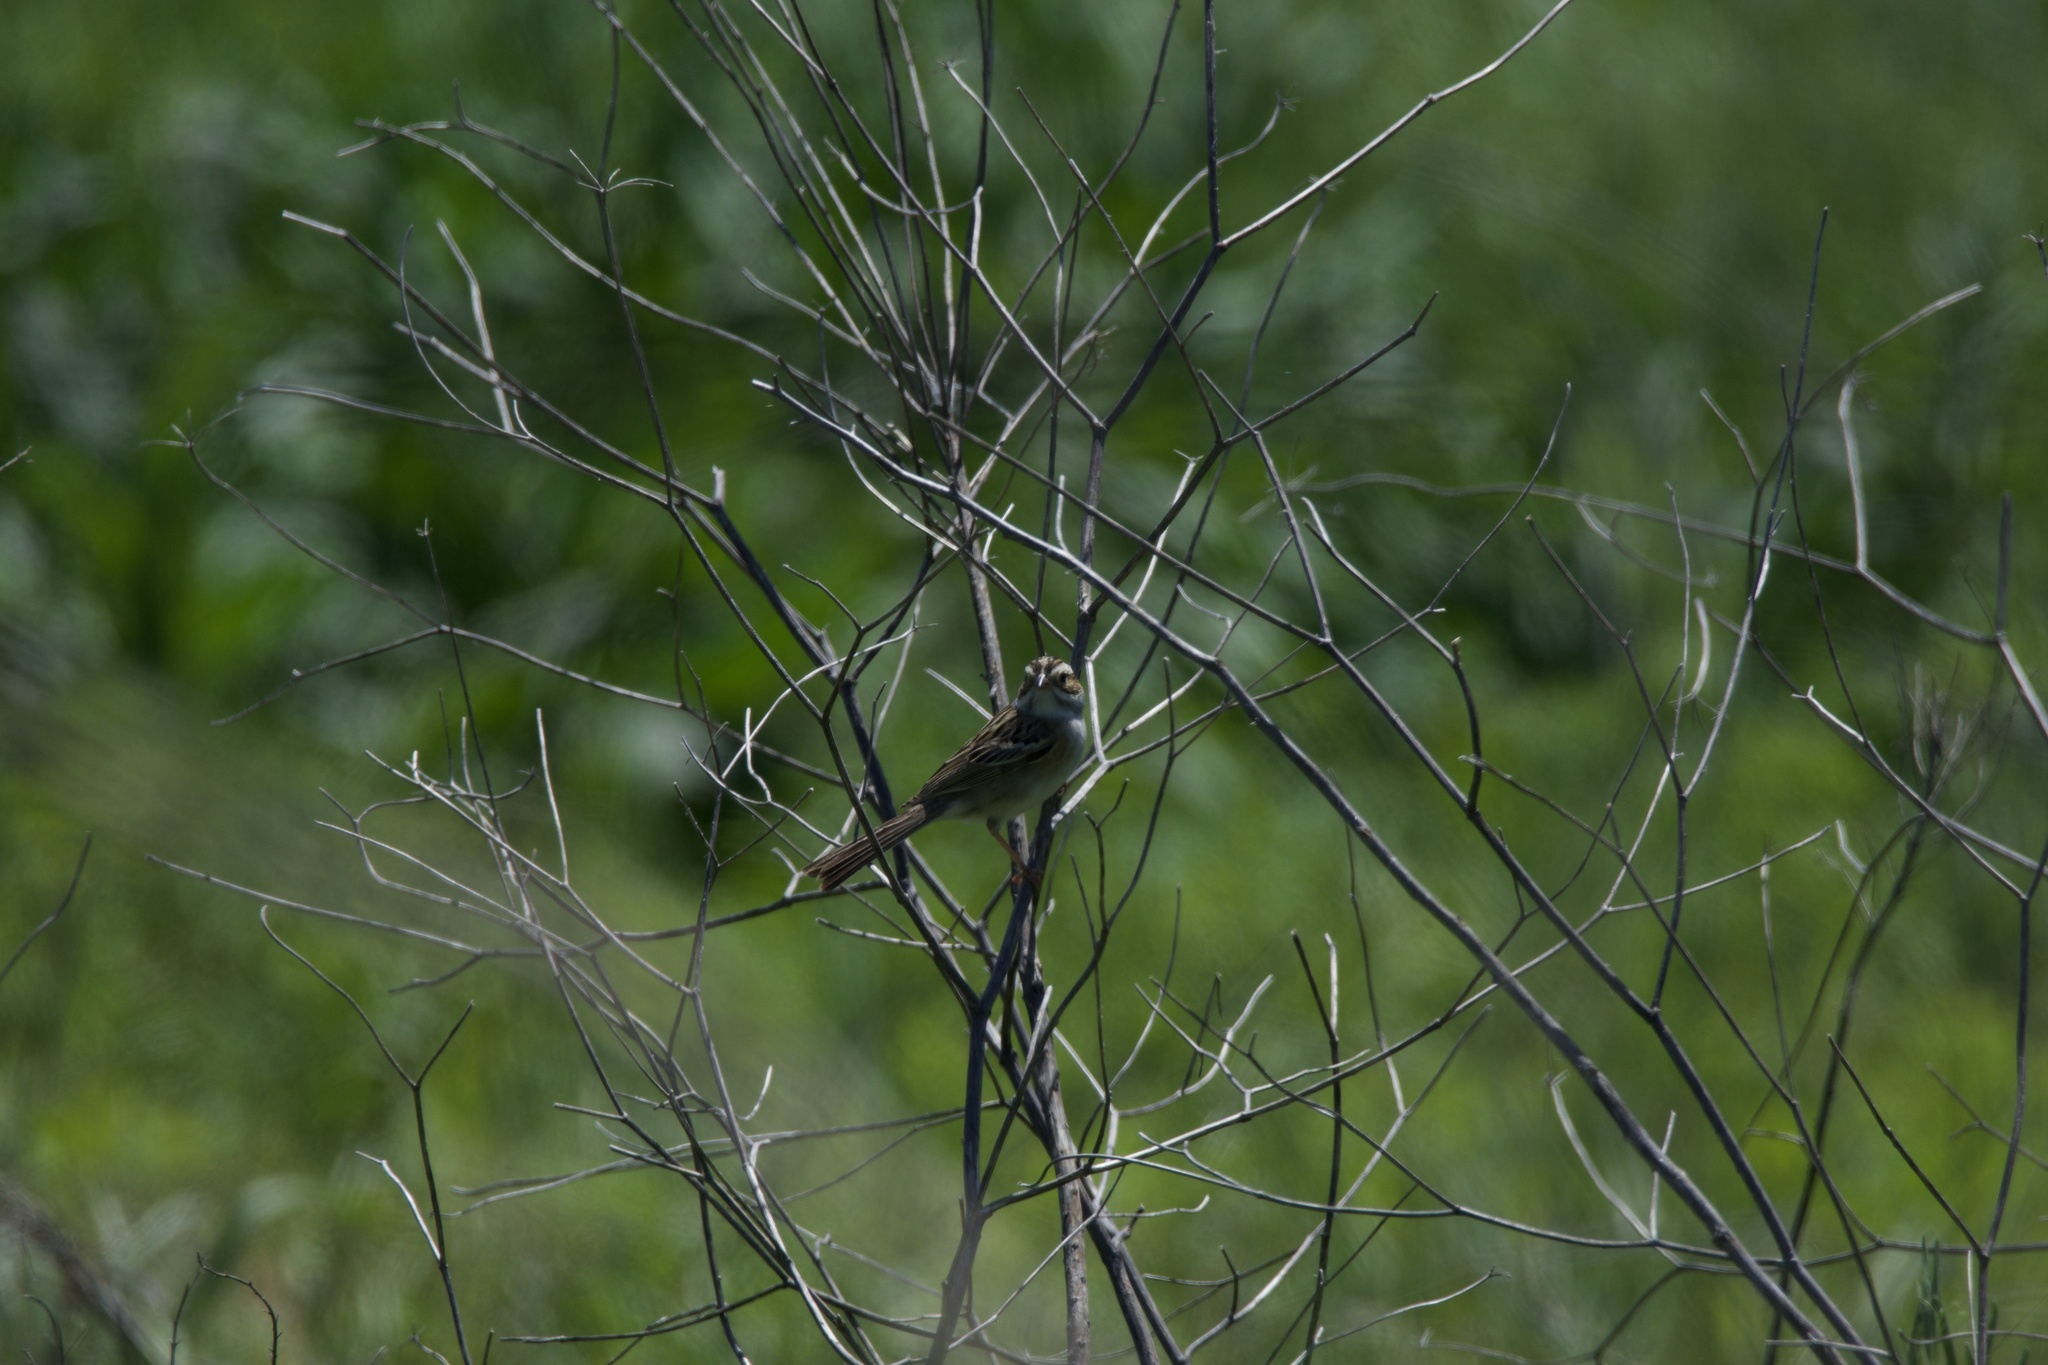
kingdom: Animalia
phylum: Chordata
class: Aves
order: Passeriformes
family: Passerellidae
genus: Spizella
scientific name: Spizella pallida
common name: Clay-colored sparrow
